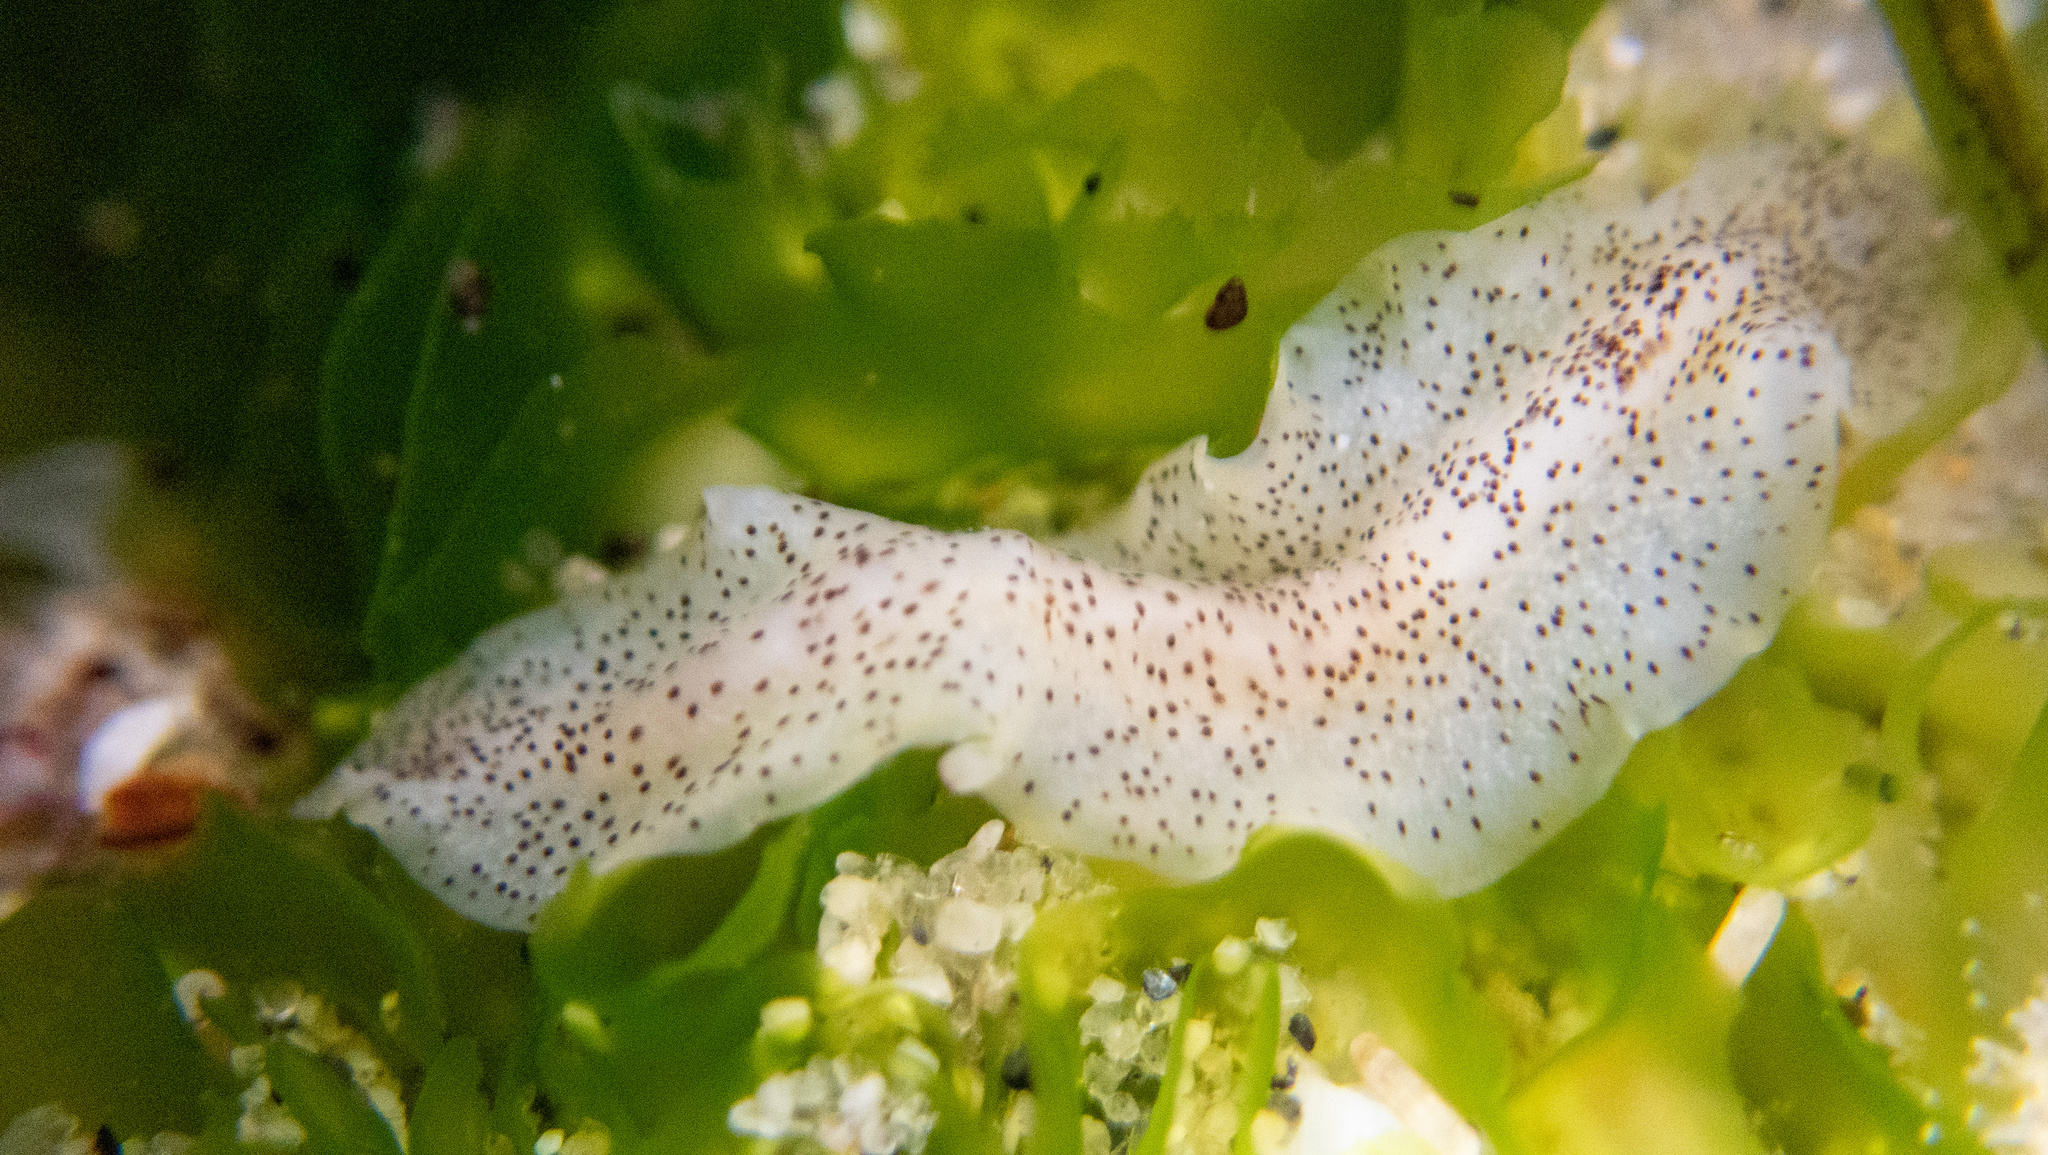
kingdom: Animalia
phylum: Platyhelminthes
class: Turbellaria
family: Prosthiostomidae
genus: Enchiridium
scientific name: Enchiridium punctatum
